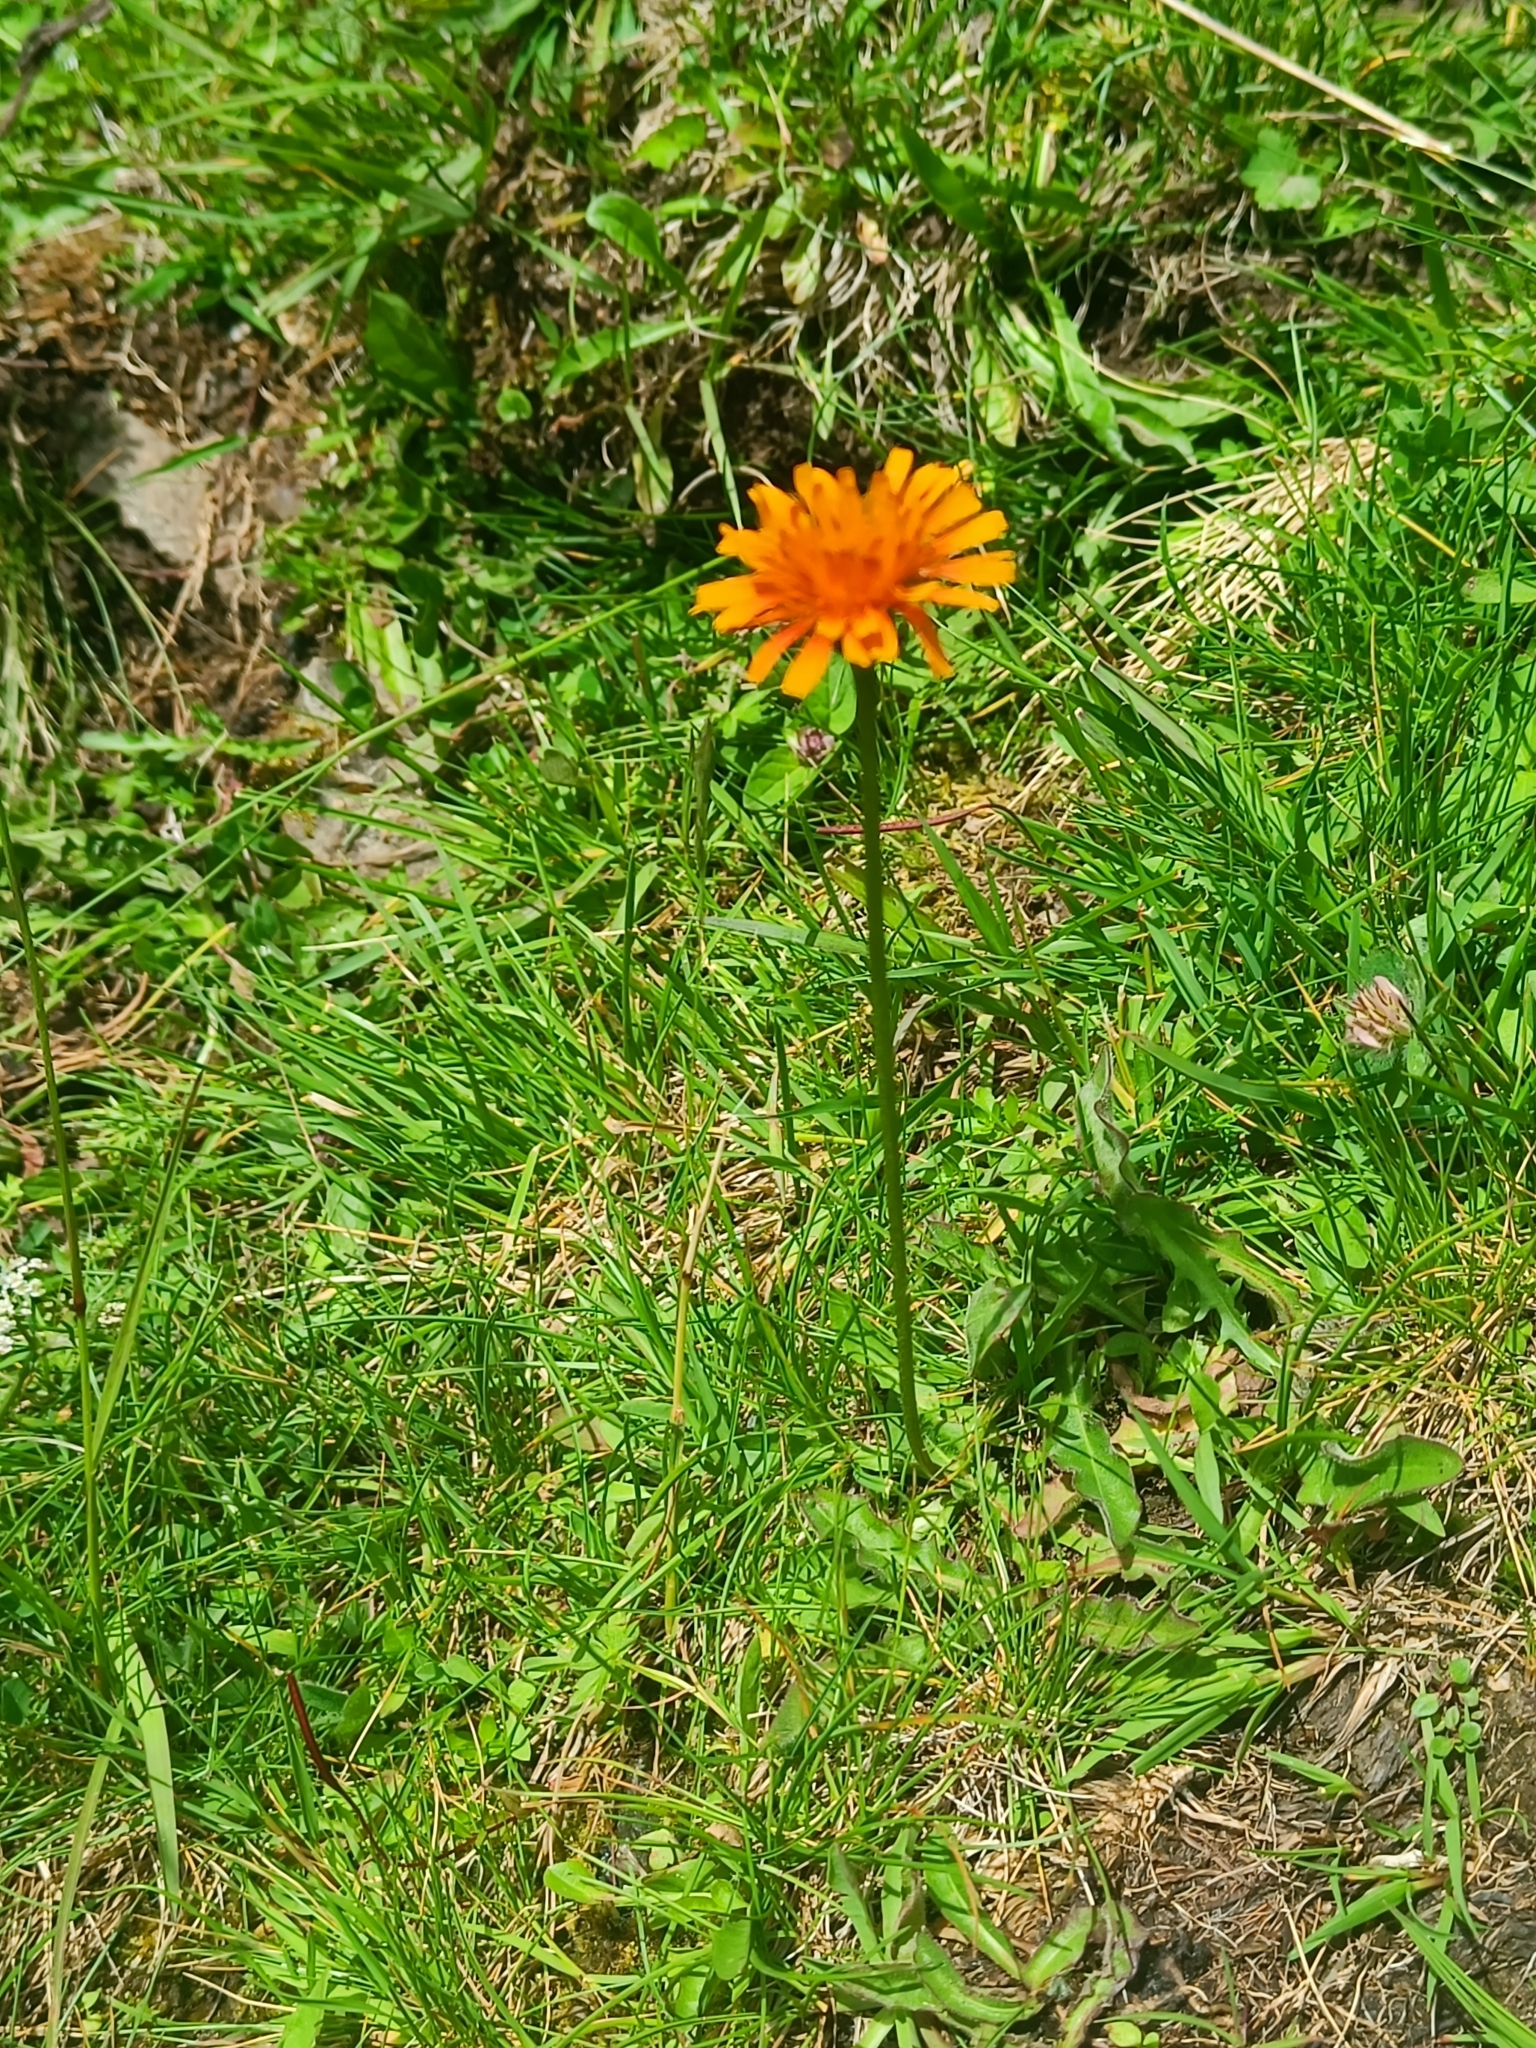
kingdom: Plantae
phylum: Tracheophyta
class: Magnoliopsida
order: Asterales
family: Asteraceae
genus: Crepis
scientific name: Crepis aurea
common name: Golden hawk's-beard
